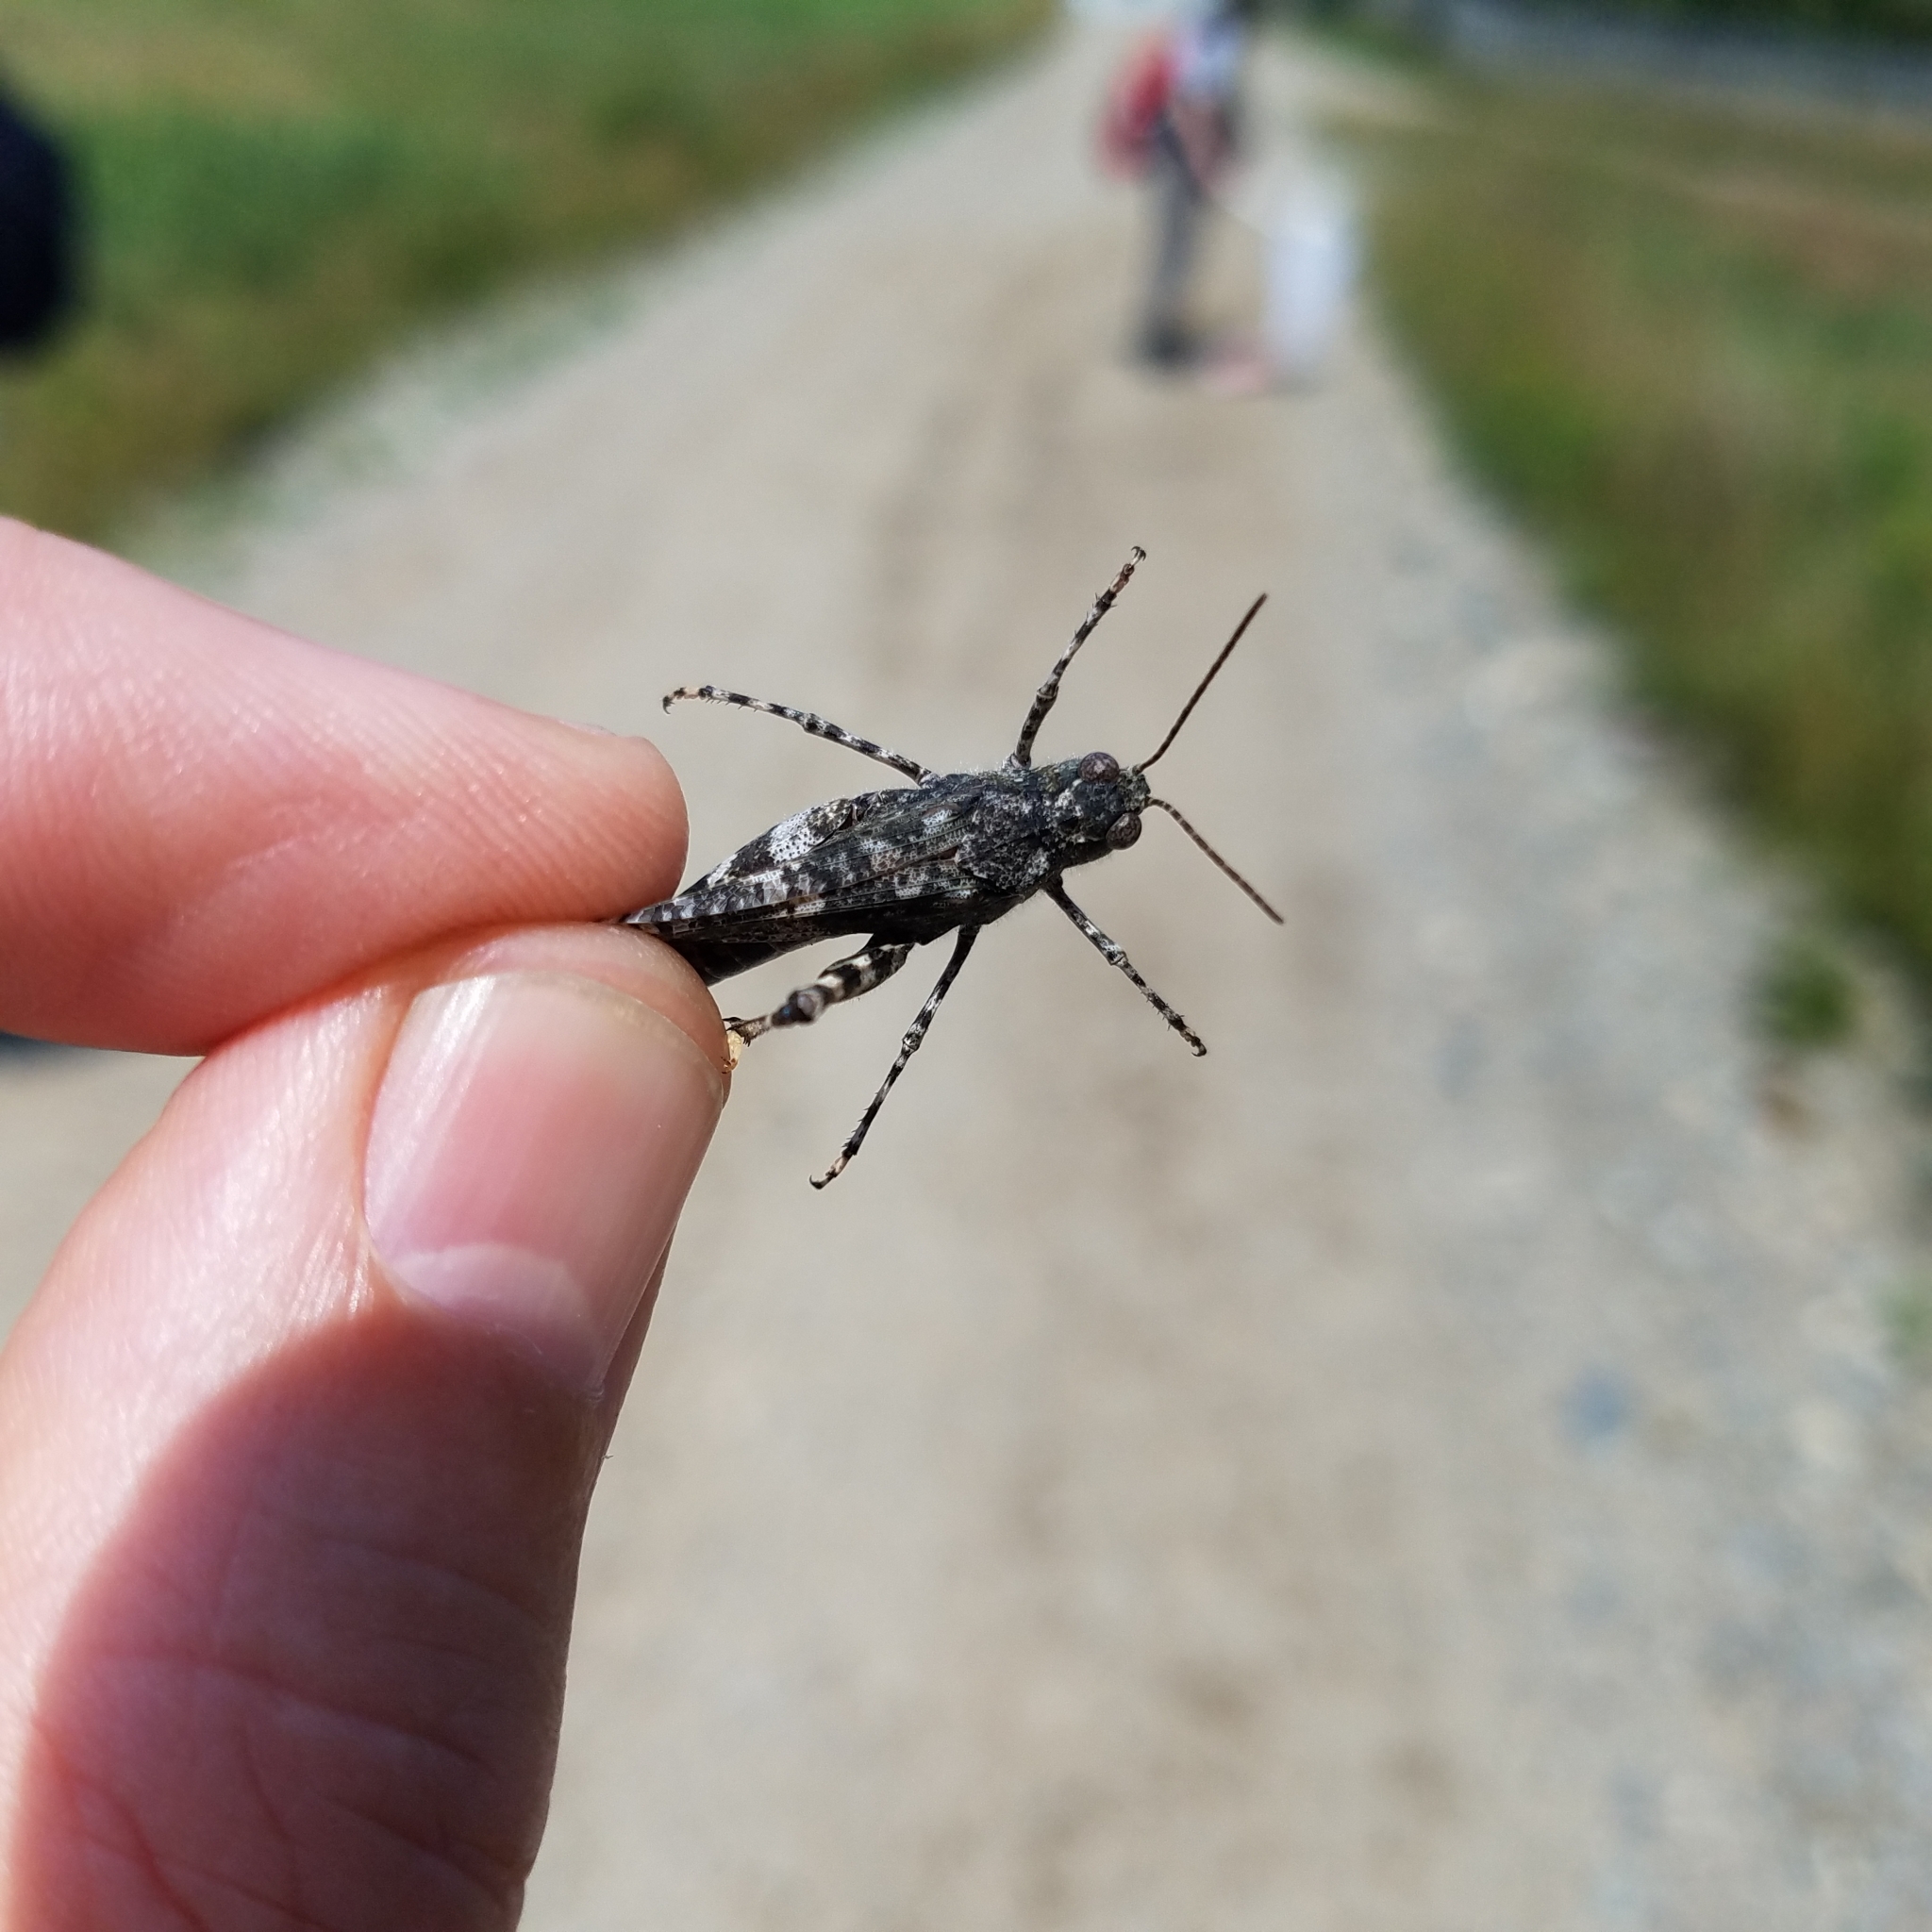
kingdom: Animalia
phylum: Arthropoda
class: Insecta
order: Orthoptera
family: Acrididae
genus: Trimerotropis
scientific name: Trimerotropis verruculata
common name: Crackling forest grasshopper
